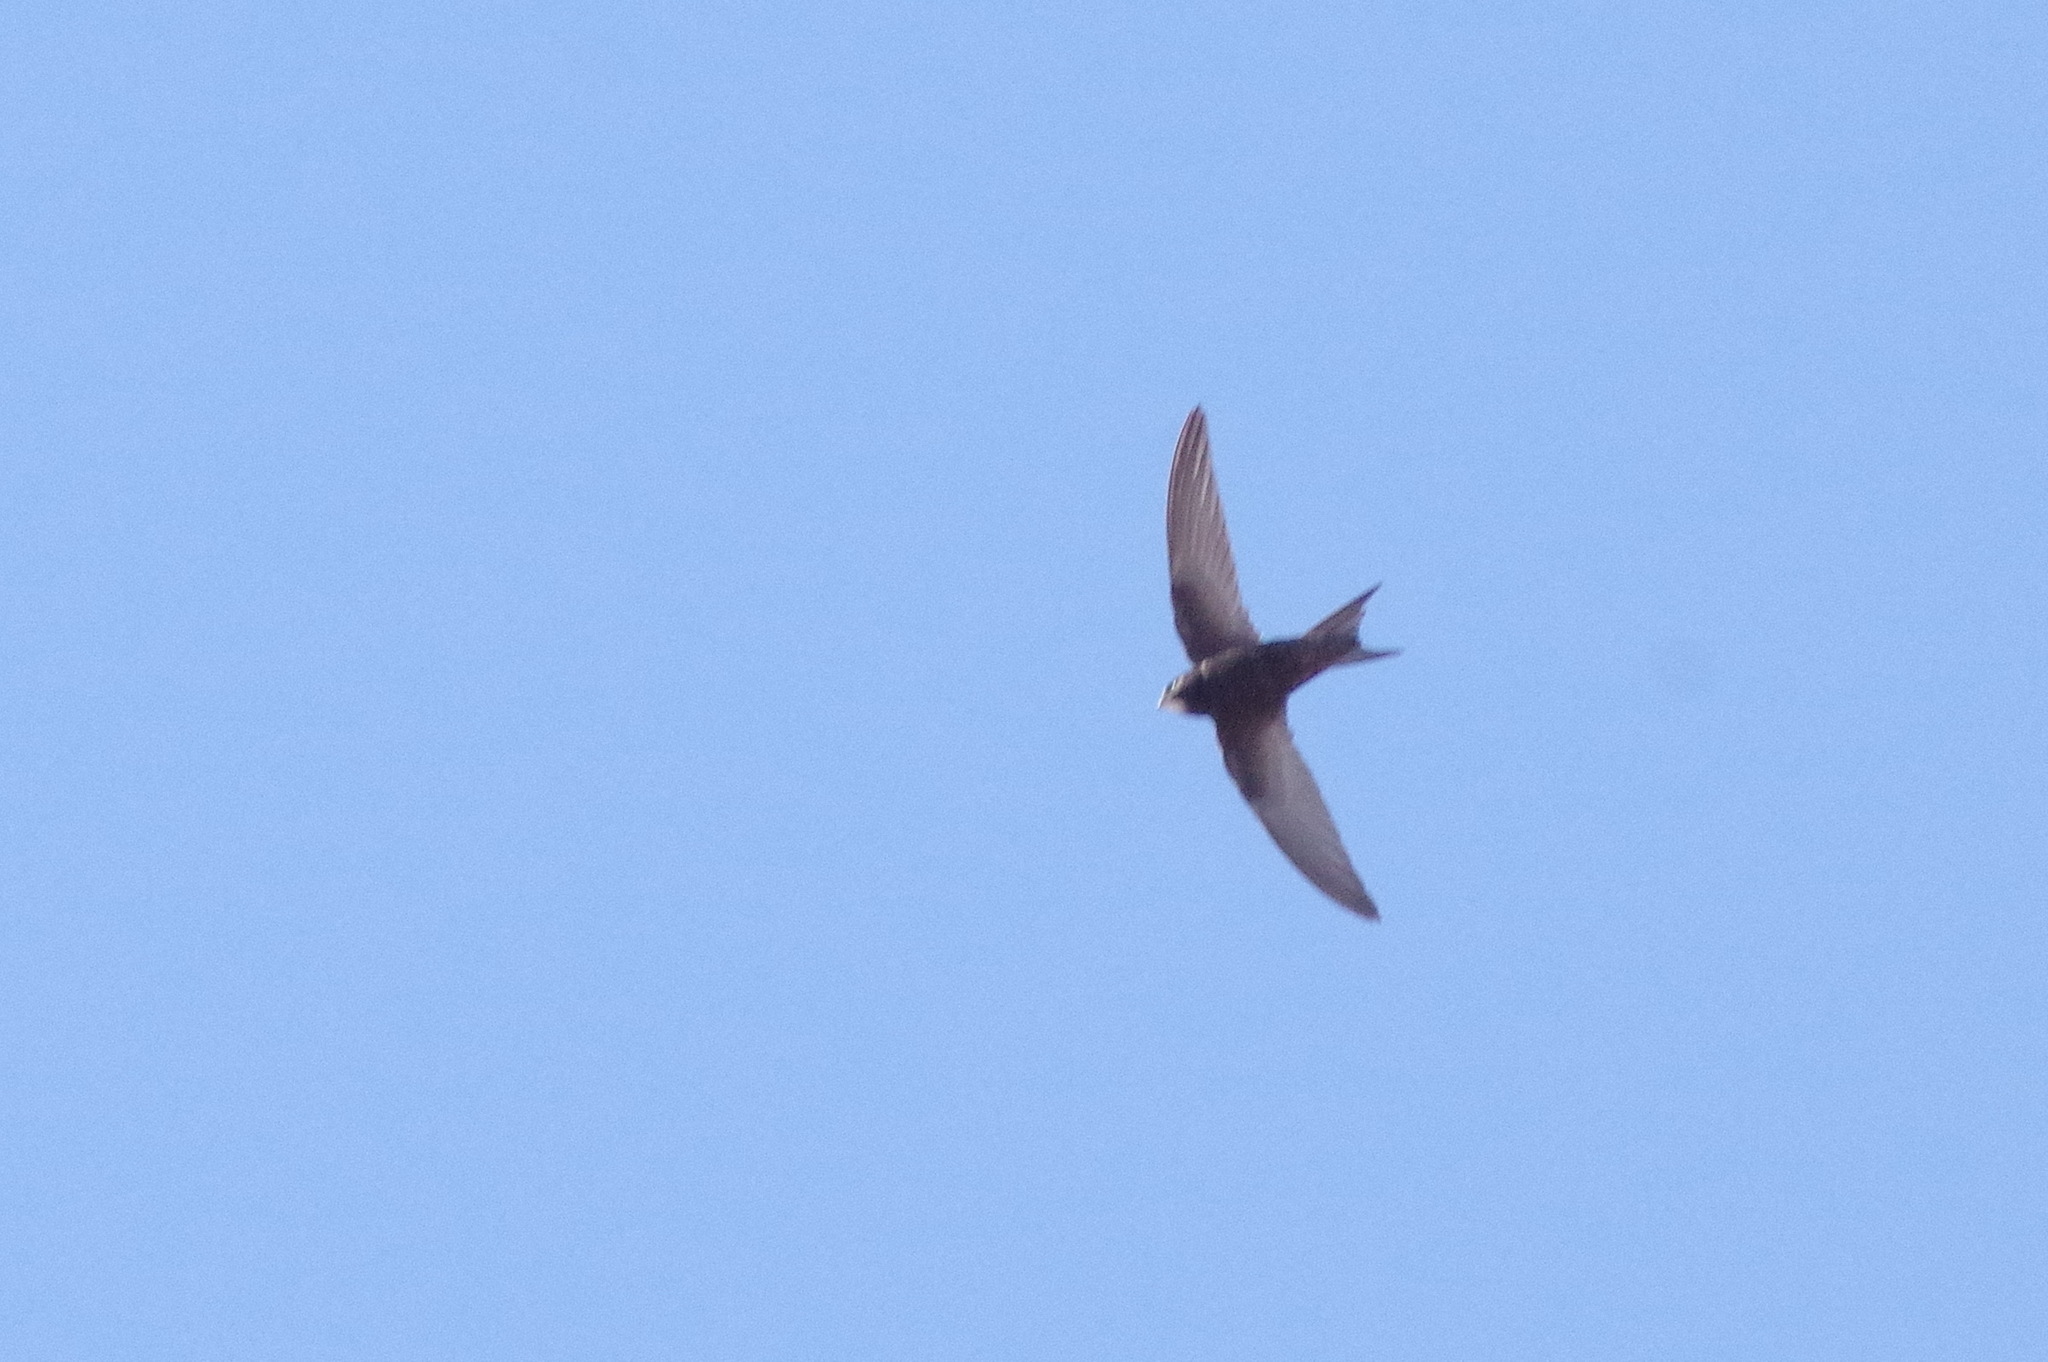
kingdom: Animalia
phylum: Chordata
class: Aves
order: Apodiformes
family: Apodidae
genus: Apus
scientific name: Apus apus
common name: Common swift
